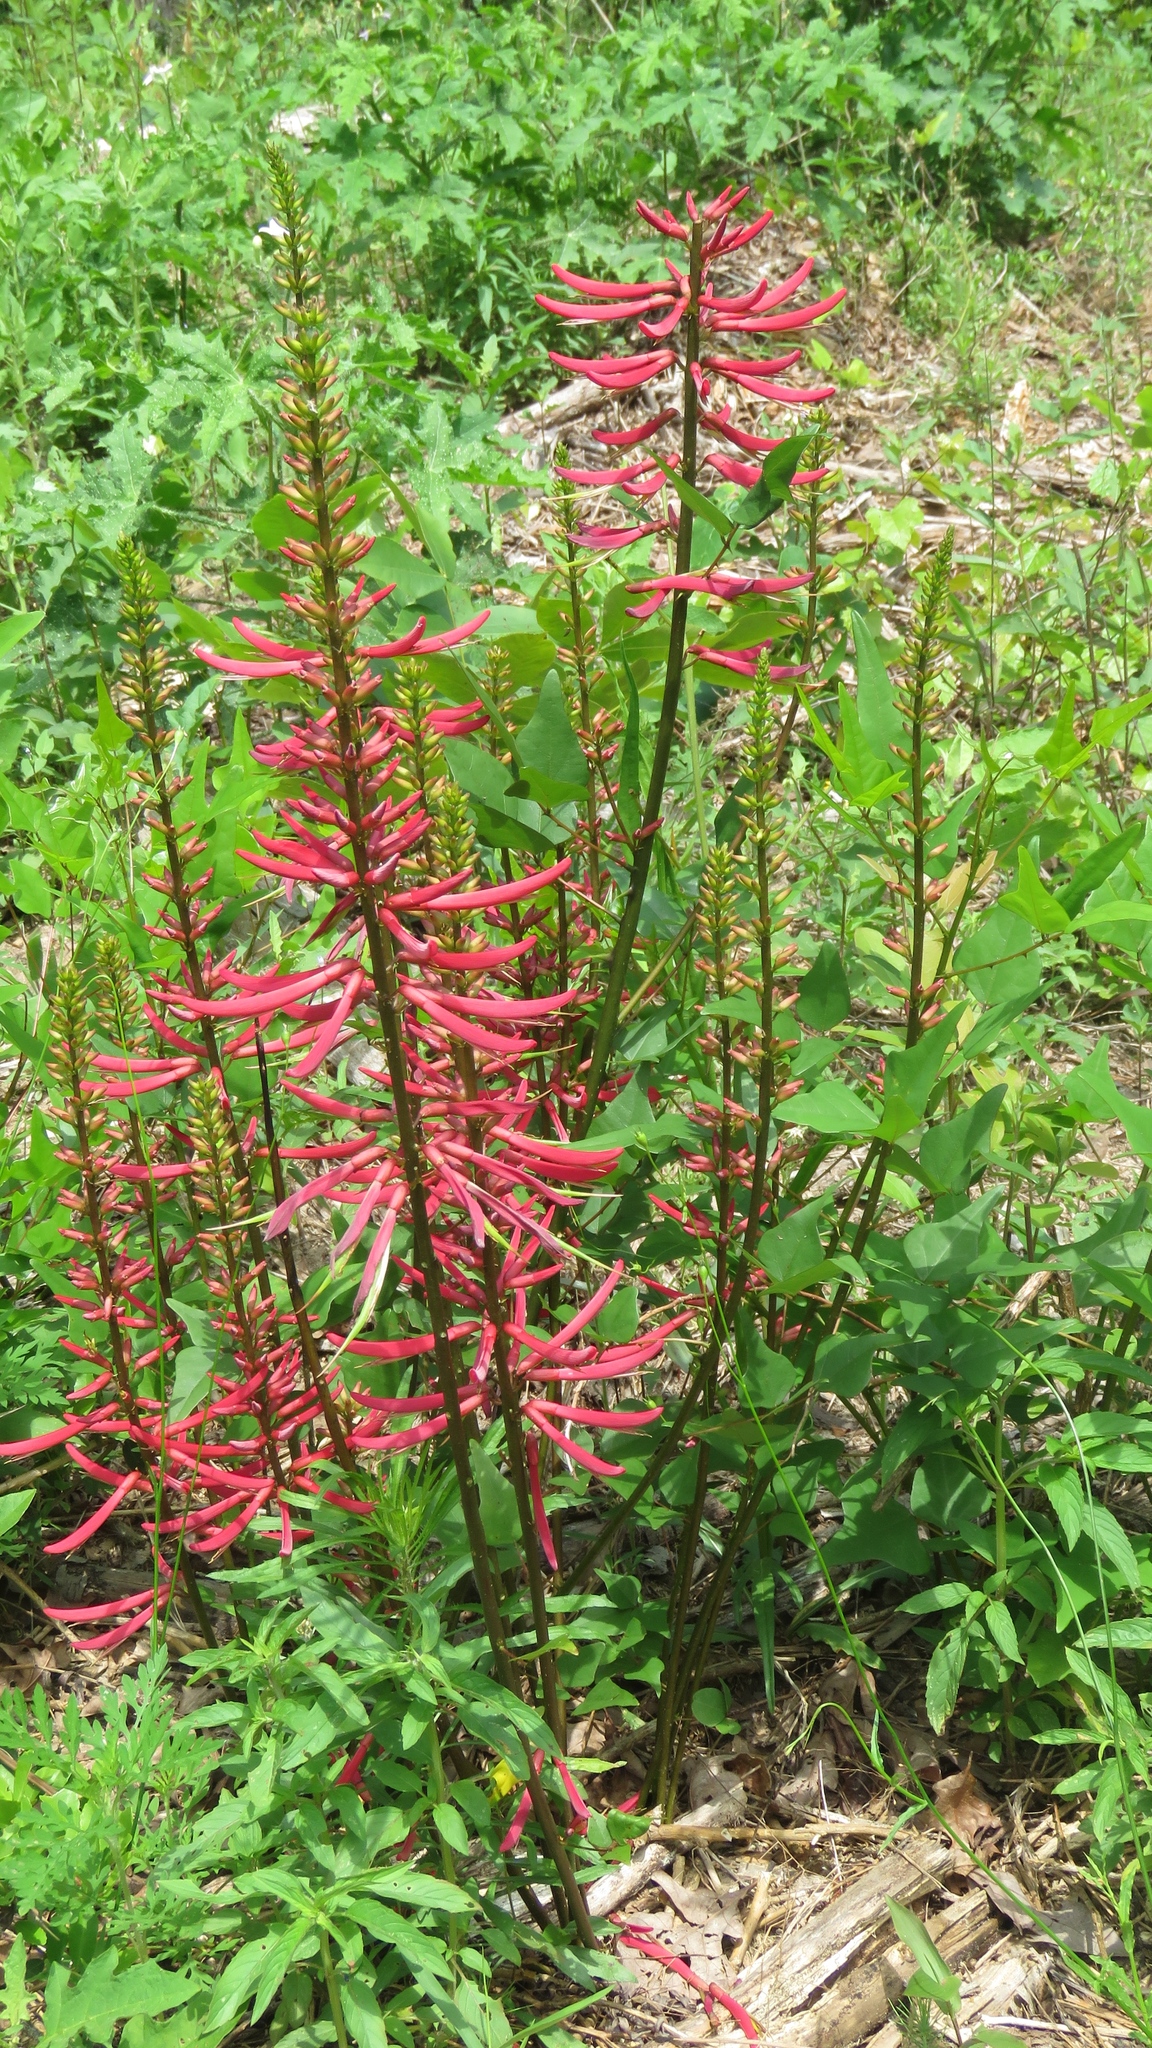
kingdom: Plantae
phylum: Tracheophyta
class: Magnoliopsida
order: Fabales
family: Fabaceae
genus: Erythrina
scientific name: Erythrina herbacea
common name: Coral-bean
